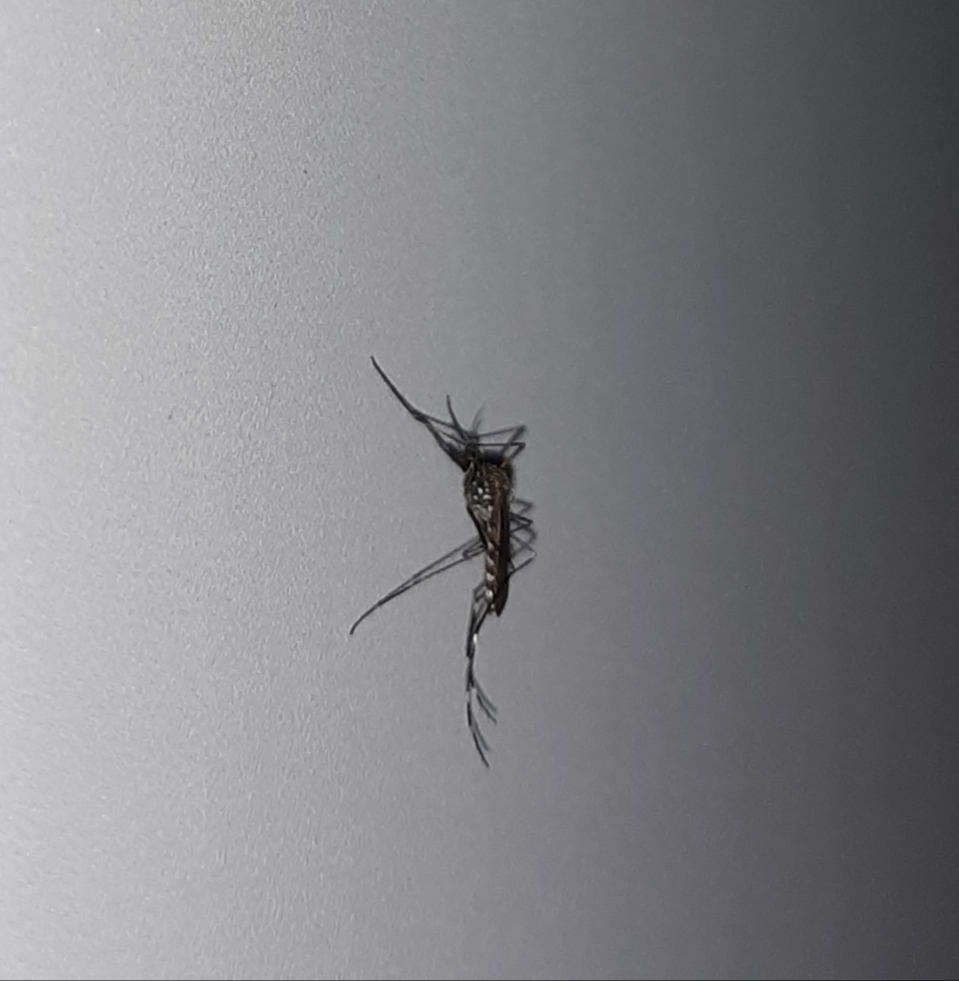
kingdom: Animalia
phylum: Arthropoda
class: Insecta
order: Diptera
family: Culicidae
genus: Aedes
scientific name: Aedes japonicus
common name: Asian bush mosquito
